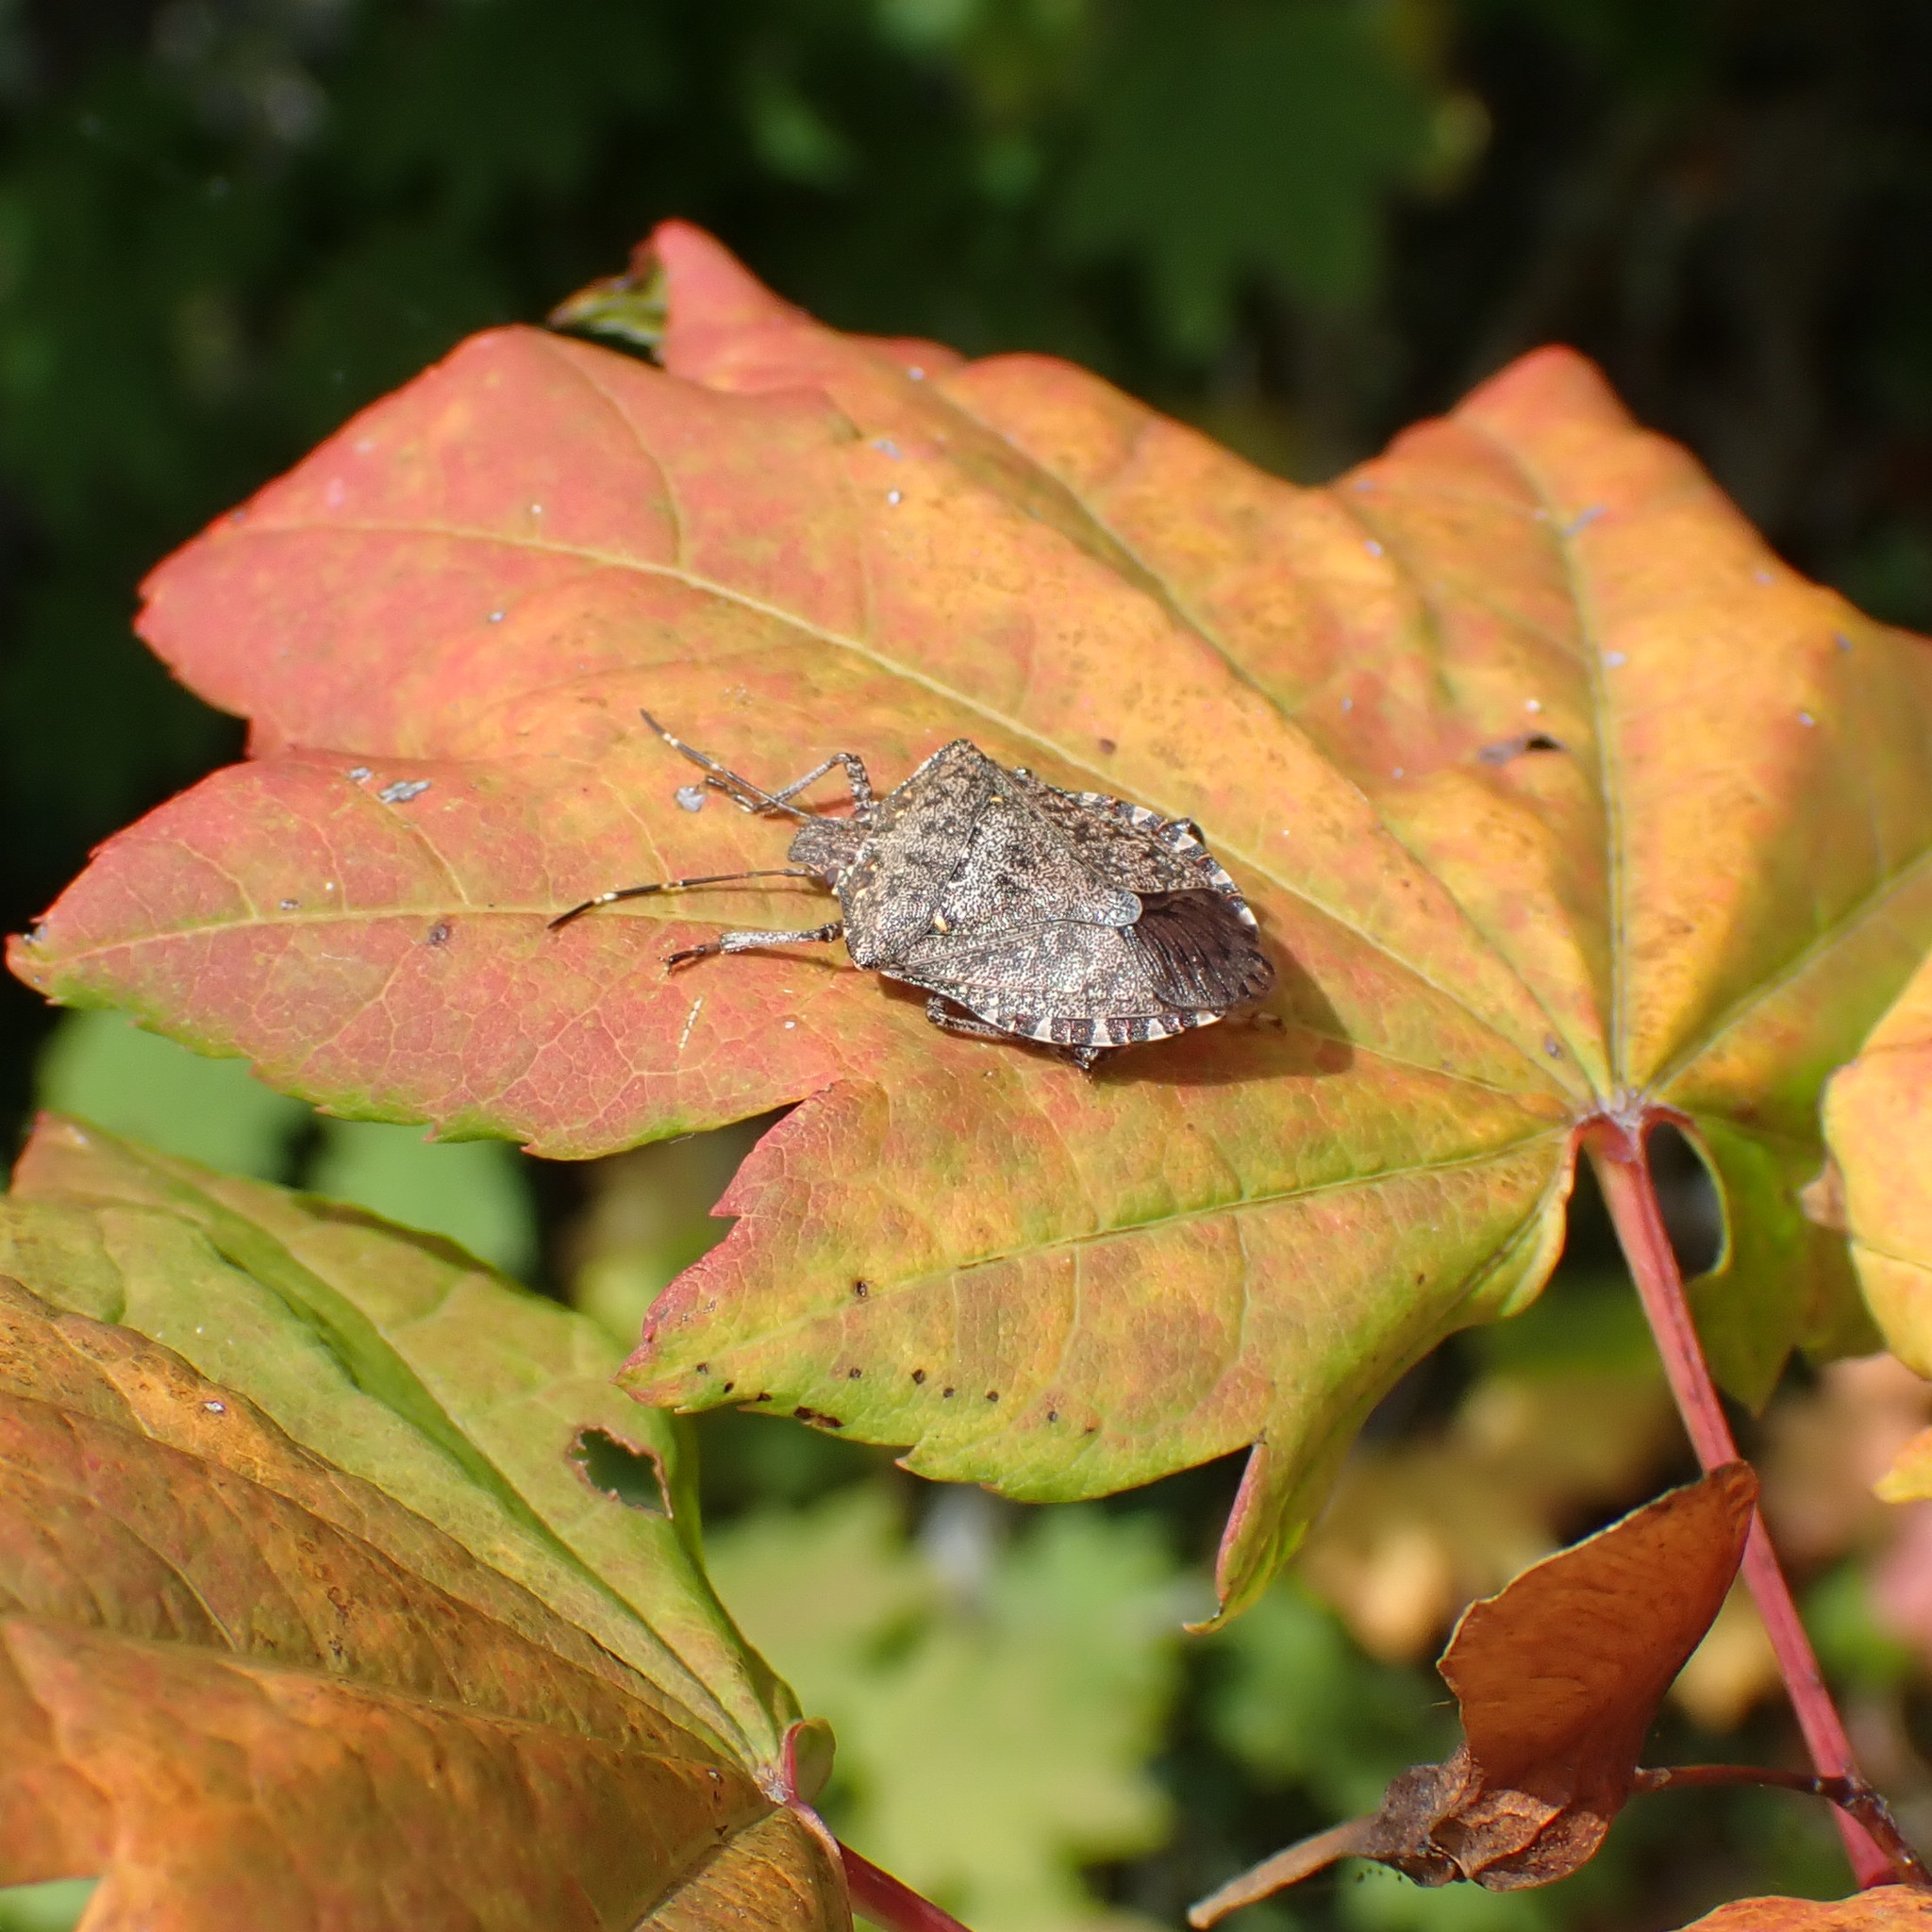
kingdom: Animalia
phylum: Arthropoda
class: Insecta
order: Hemiptera
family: Pentatomidae
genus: Halyomorpha
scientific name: Halyomorpha halys
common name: Brown marmorated stink bug
